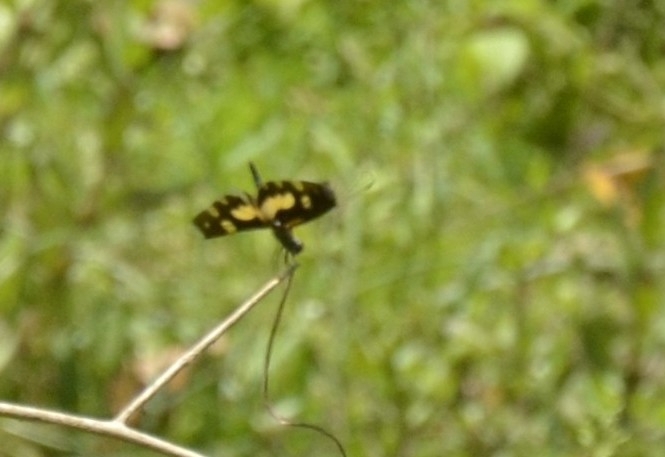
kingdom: Animalia
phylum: Arthropoda
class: Insecta
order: Odonata
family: Libellulidae
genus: Rhyothemis
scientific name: Rhyothemis variegata
